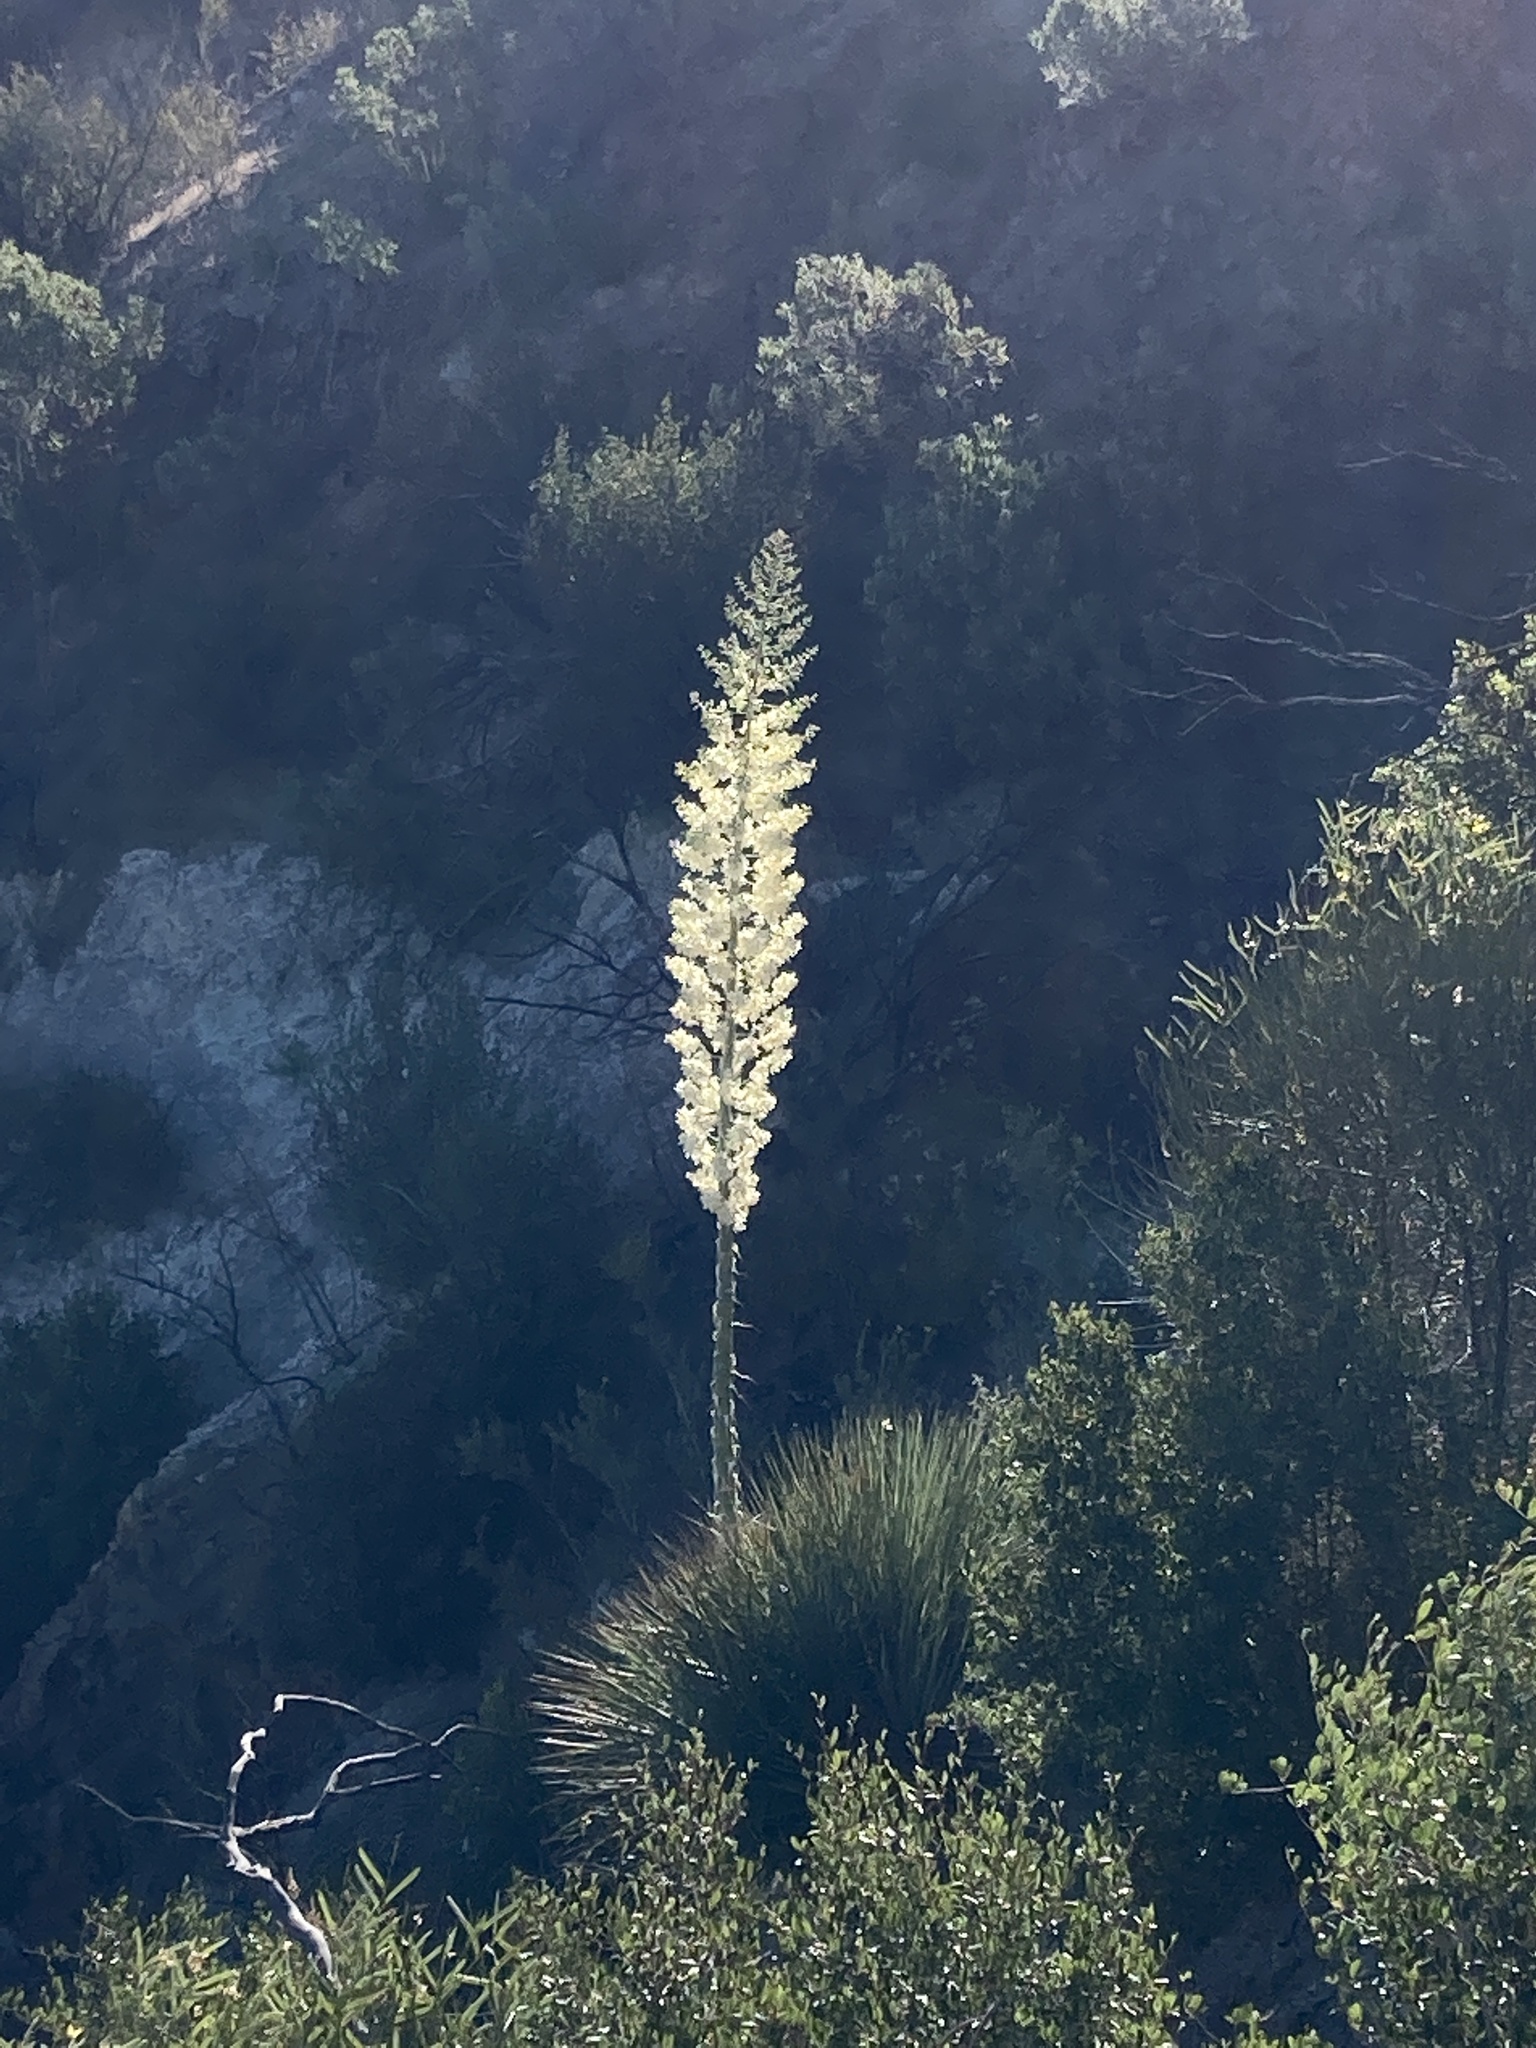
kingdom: Plantae
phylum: Tracheophyta
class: Liliopsida
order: Asparagales
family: Asparagaceae
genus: Hesperoyucca
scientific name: Hesperoyucca whipplei
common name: Our lord's-candle
